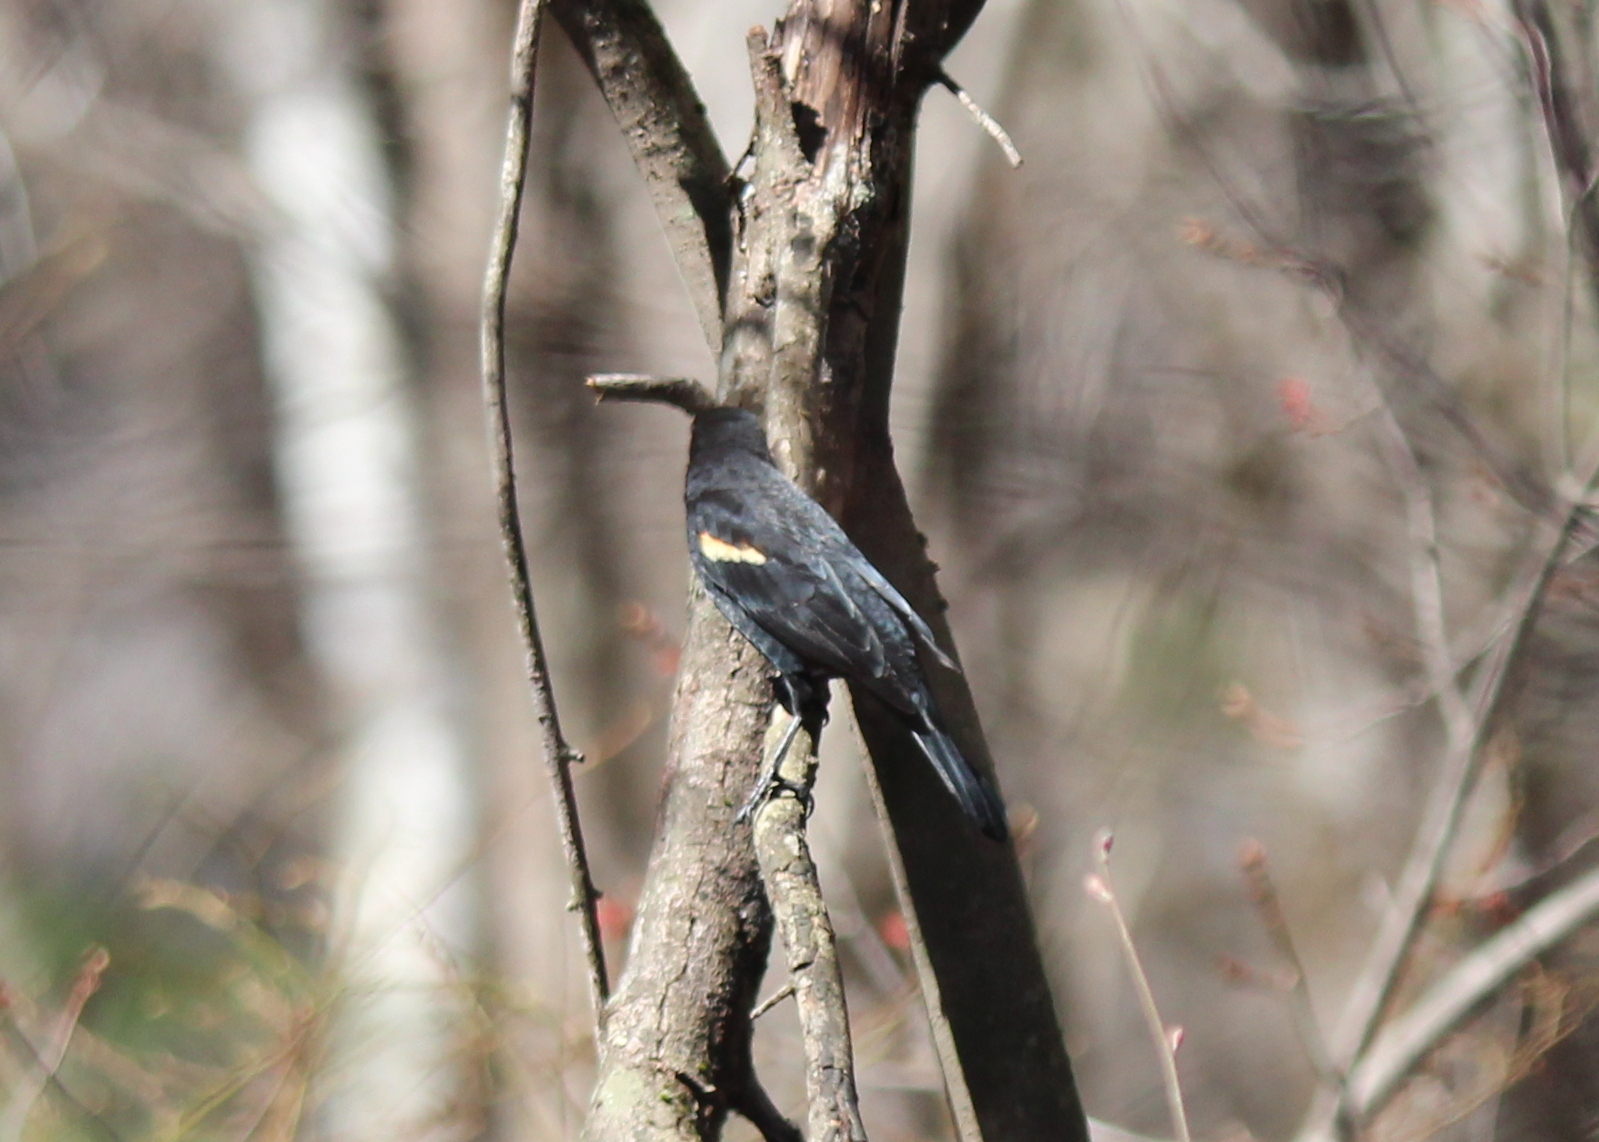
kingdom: Animalia
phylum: Chordata
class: Aves
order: Passeriformes
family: Icteridae
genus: Agelaius
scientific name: Agelaius phoeniceus
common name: Red-winged blackbird
